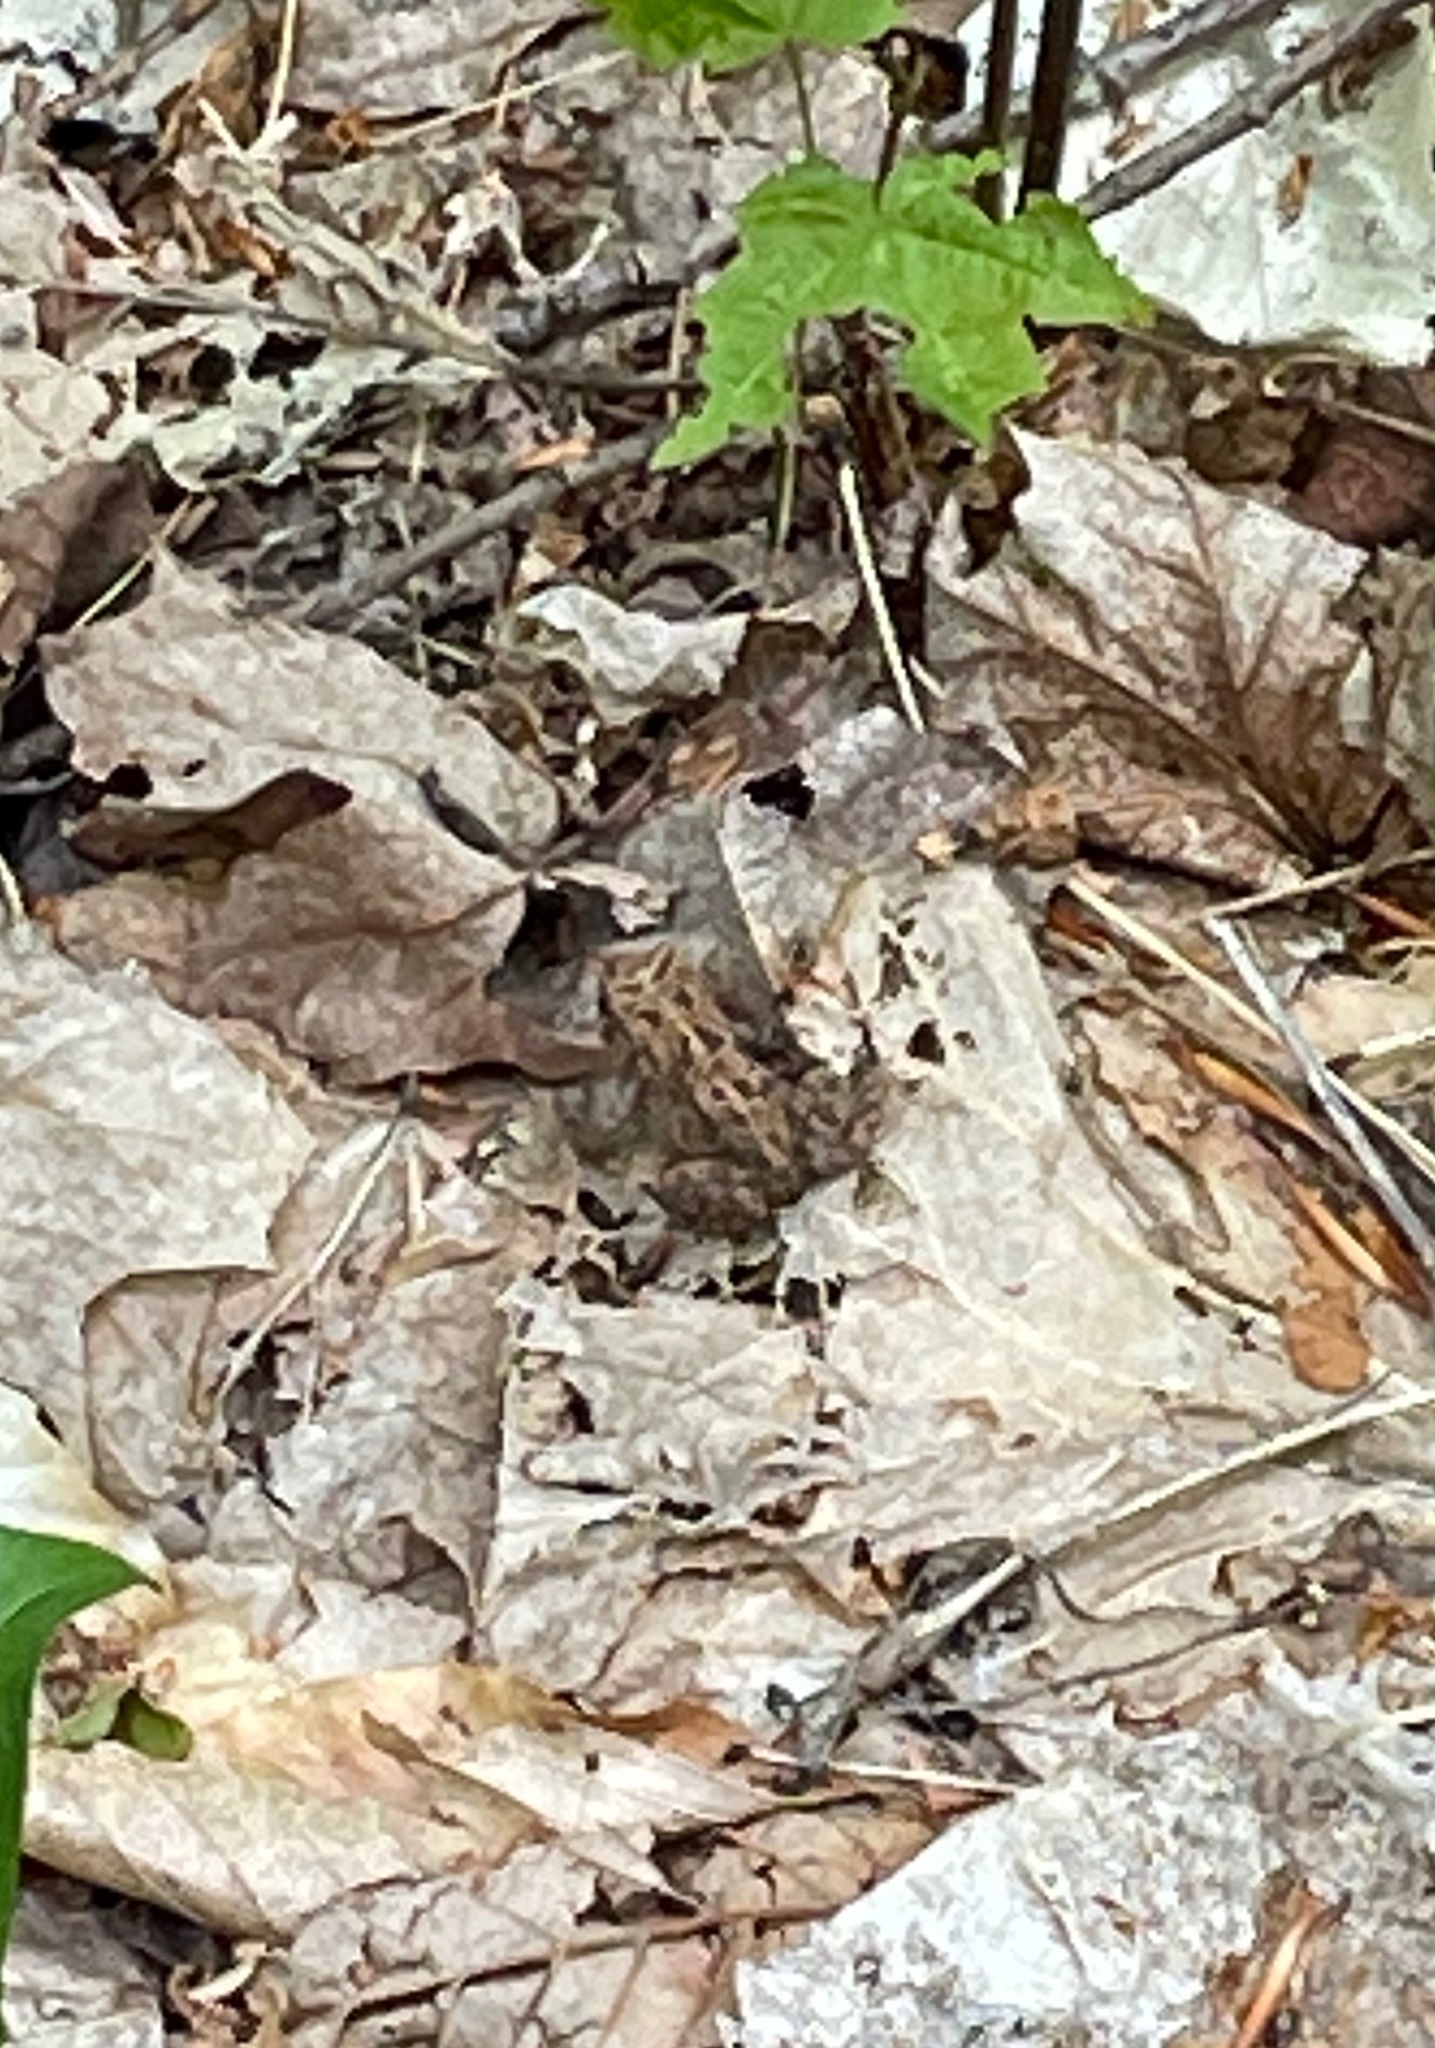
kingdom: Animalia
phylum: Chordata
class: Amphibia
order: Anura
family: Bufonidae
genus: Anaxyrus
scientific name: Anaxyrus americanus
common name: American toad
